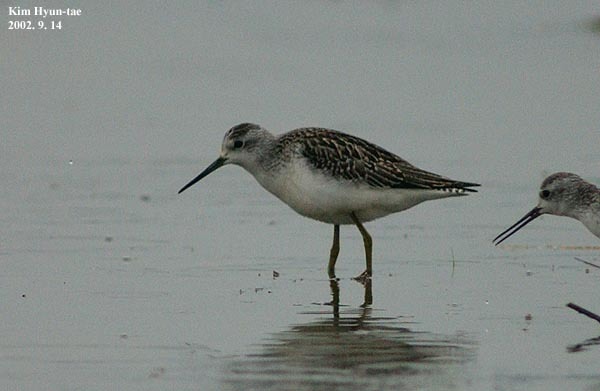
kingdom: Animalia
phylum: Chordata
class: Aves
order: Charadriiformes
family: Scolopacidae
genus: Tringa
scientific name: Tringa stagnatilis
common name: Marsh sandpiper
